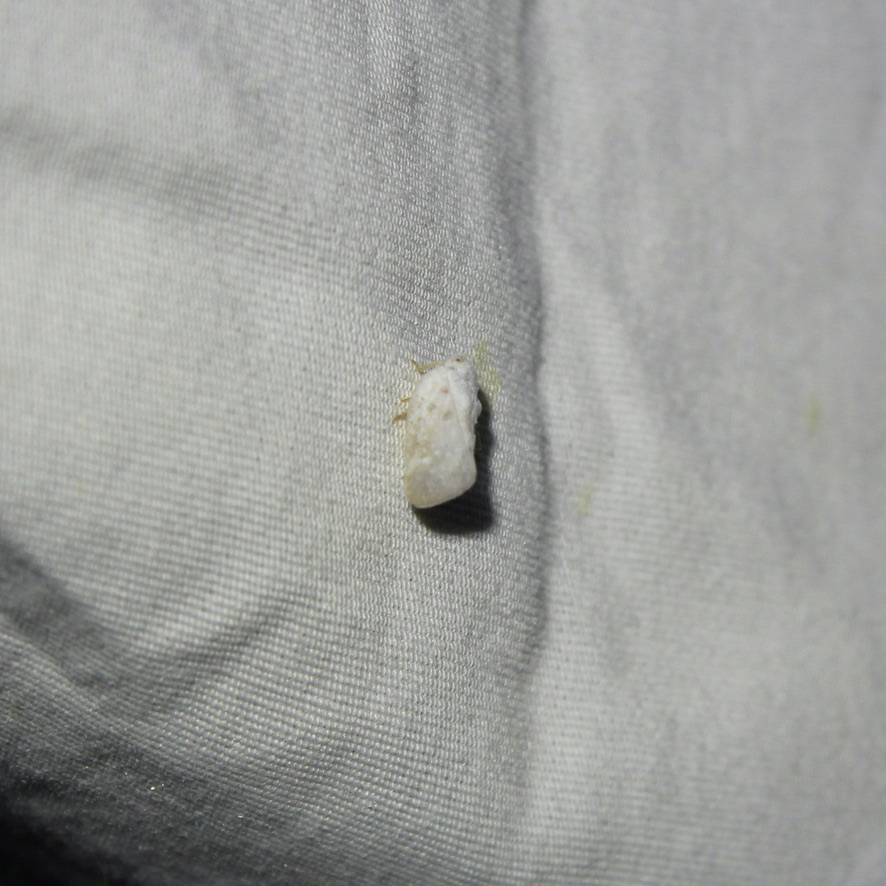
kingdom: Animalia
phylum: Arthropoda
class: Insecta
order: Hemiptera
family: Flatidae
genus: Metcalfa
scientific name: Metcalfa pruinosa
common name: Citrus flatid planthopper
